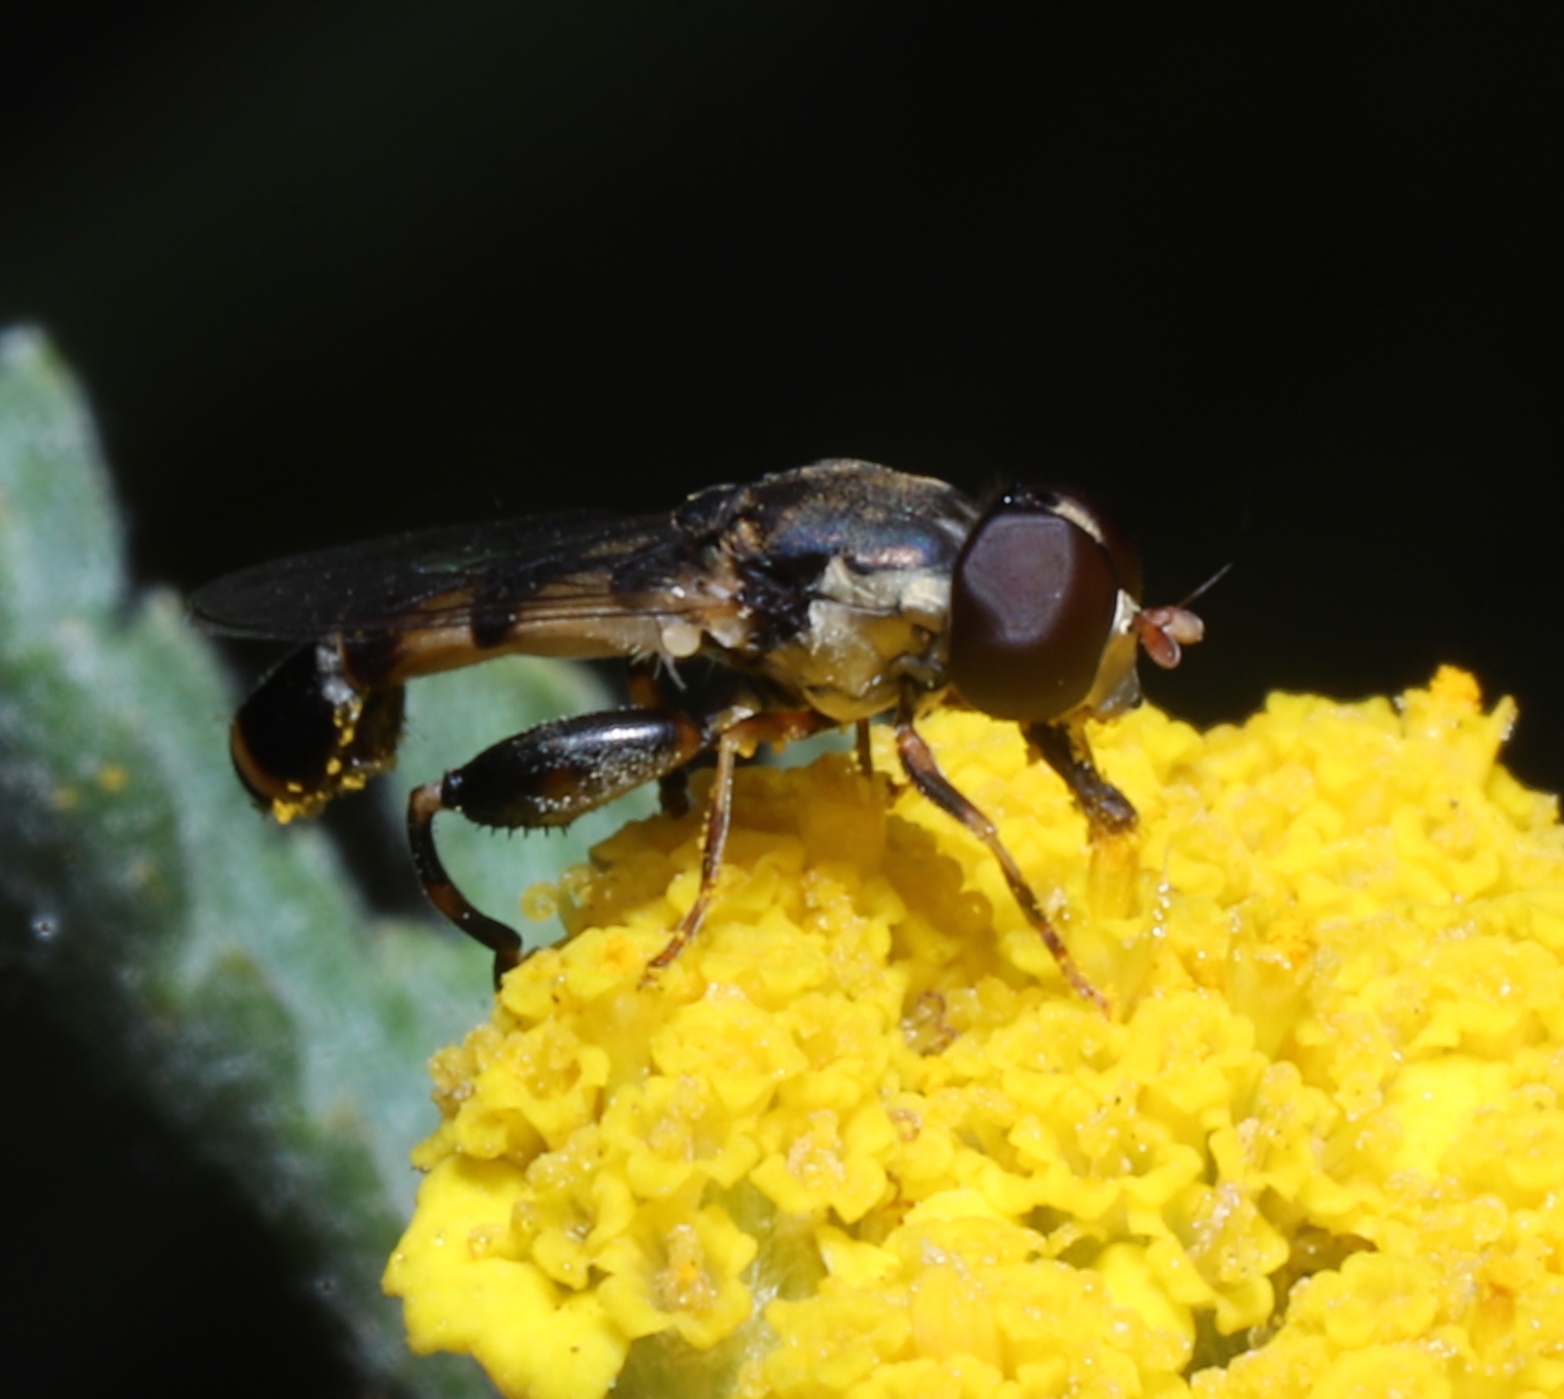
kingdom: Animalia
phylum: Arthropoda
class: Insecta
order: Diptera
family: Syrphidae
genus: Syritta
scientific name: Syritta pipiens
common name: Hover fly
